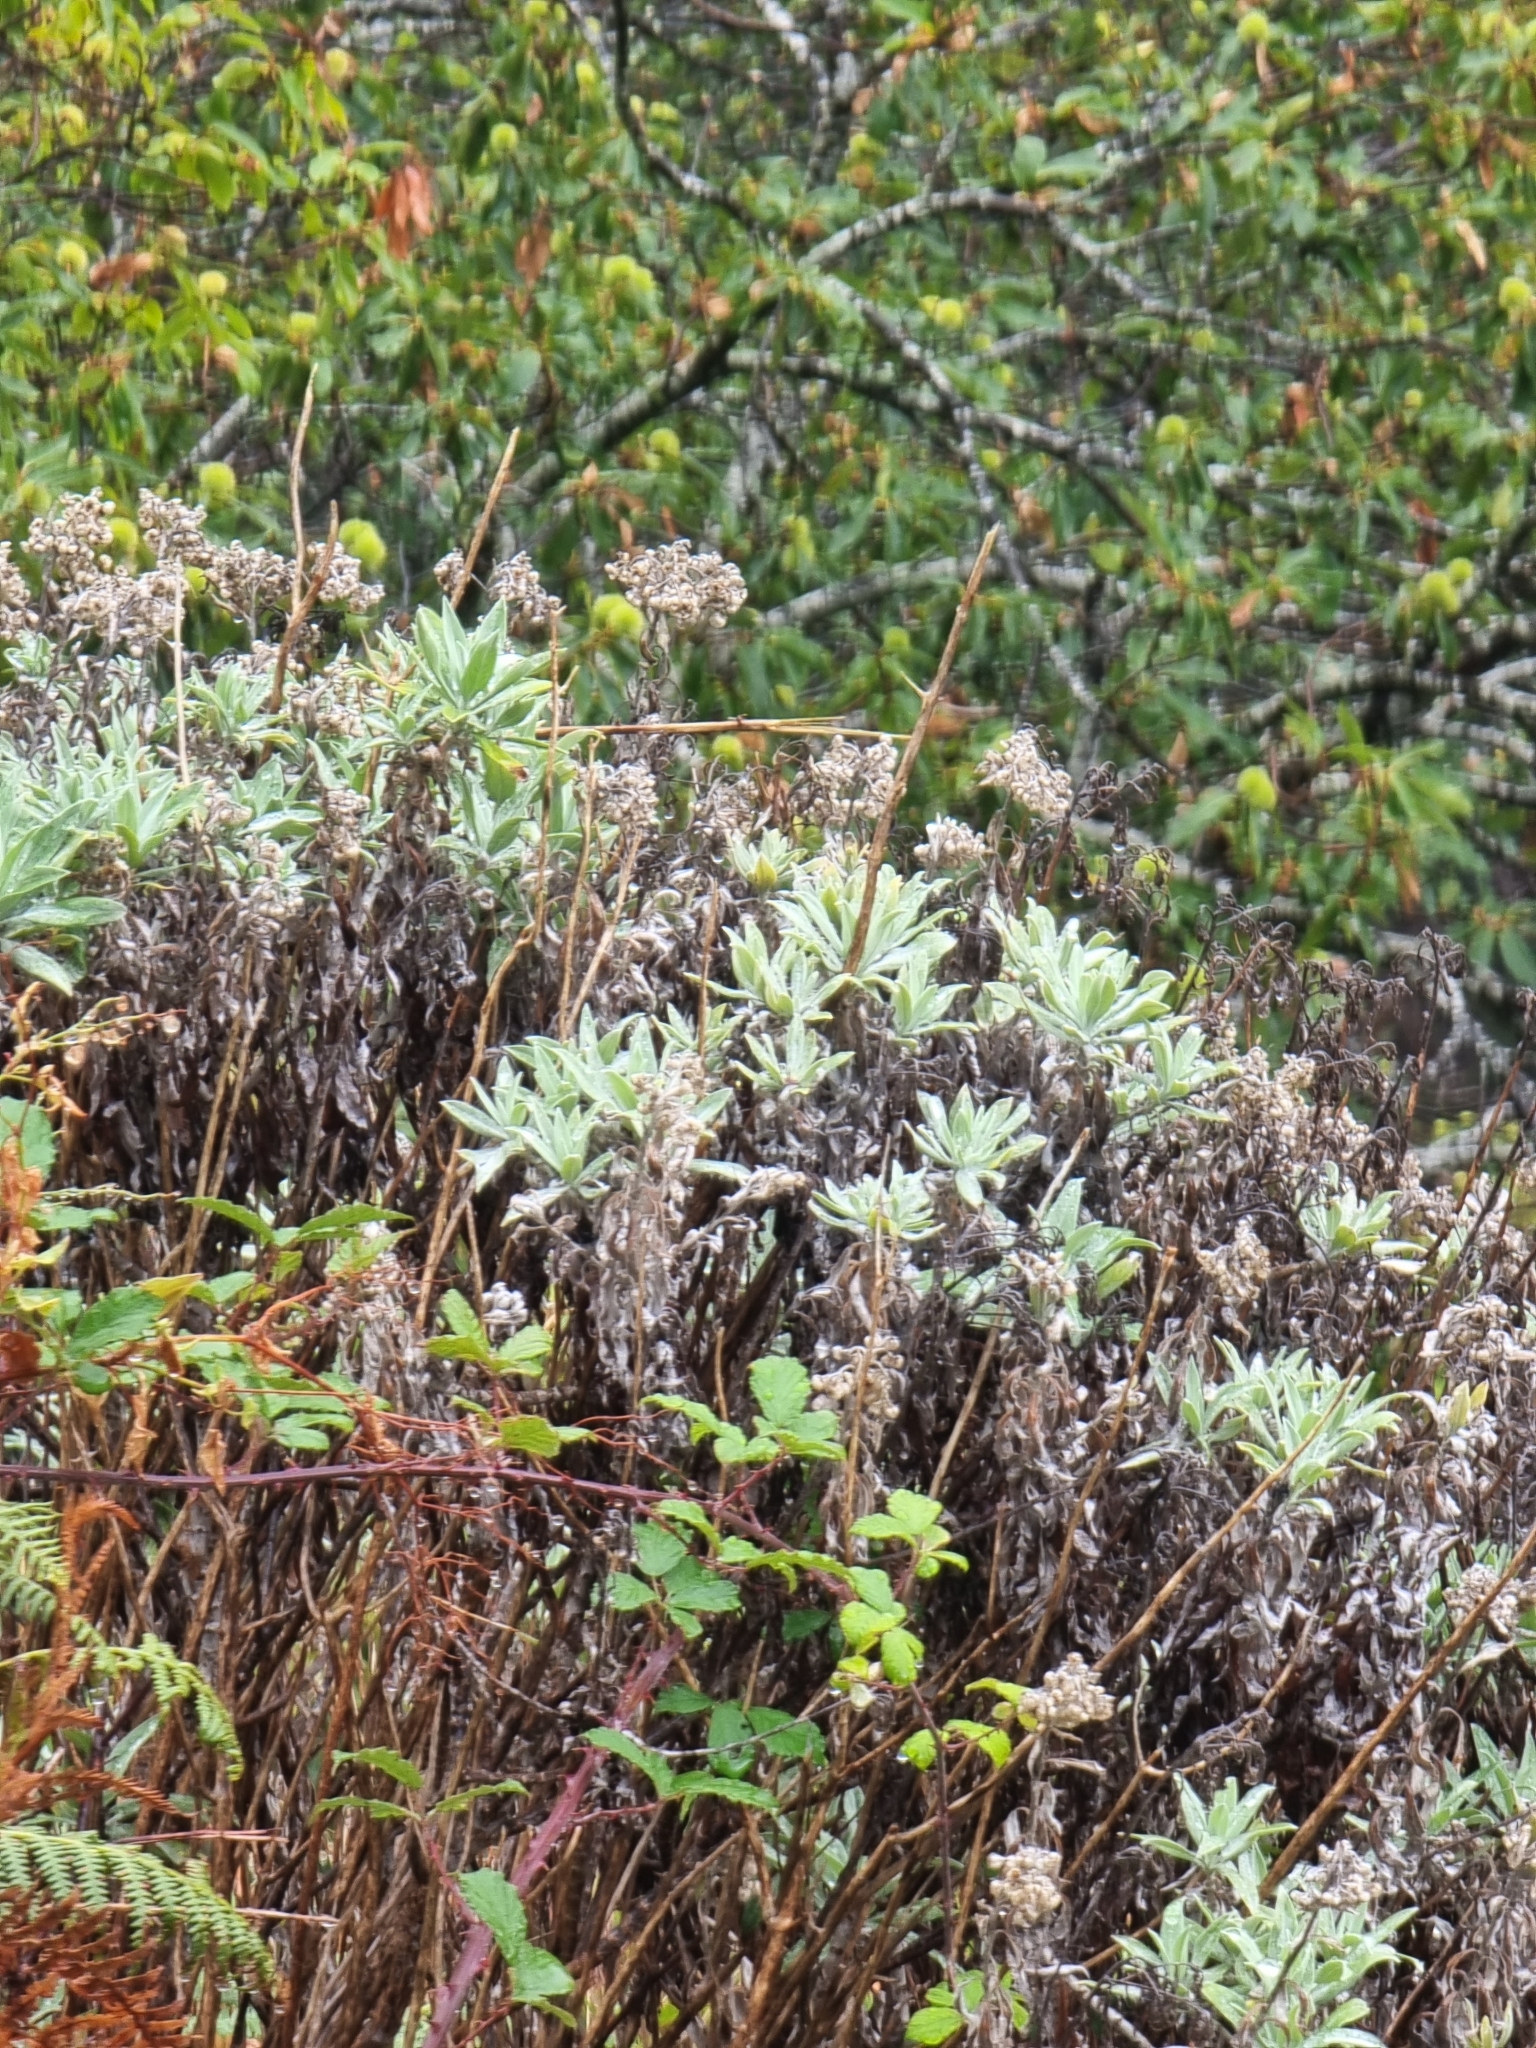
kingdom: Plantae
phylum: Tracheophyta
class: Magnoliopsida
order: Asterales
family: Asteraceae
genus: Helichrysum
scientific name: Helichrysum melaleucum
